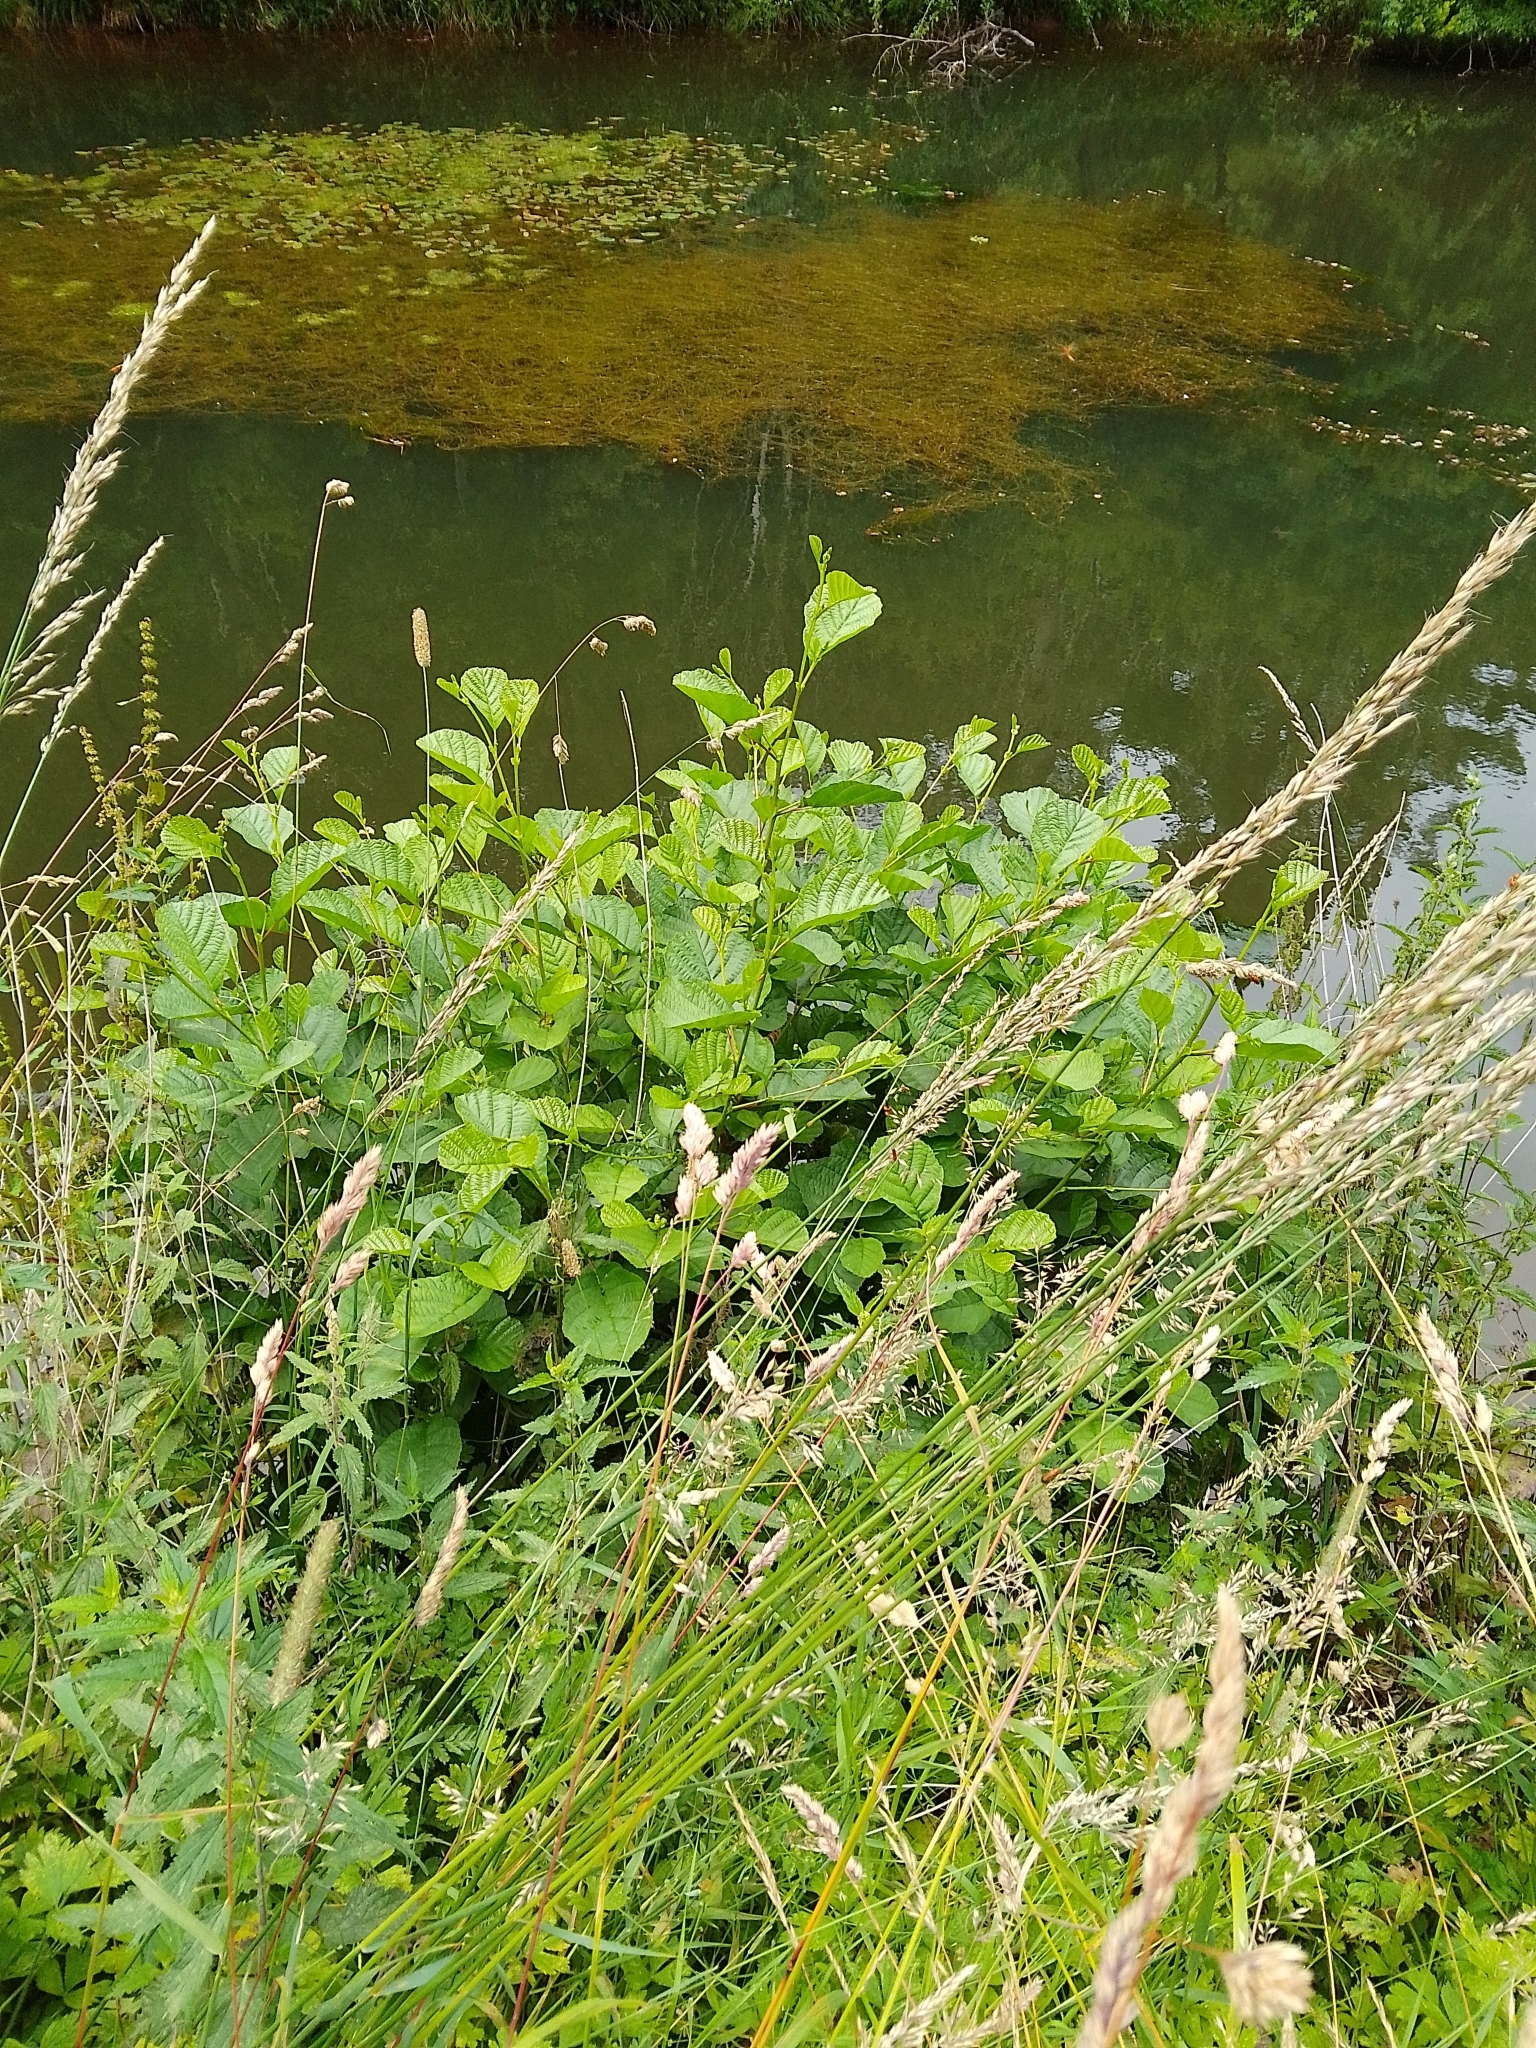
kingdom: Plantae
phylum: Tracheophyta
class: Magnoliopsida
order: Fagales
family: Betulaceae
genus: Alnus
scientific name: Alnus glutinosa
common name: Black alder
